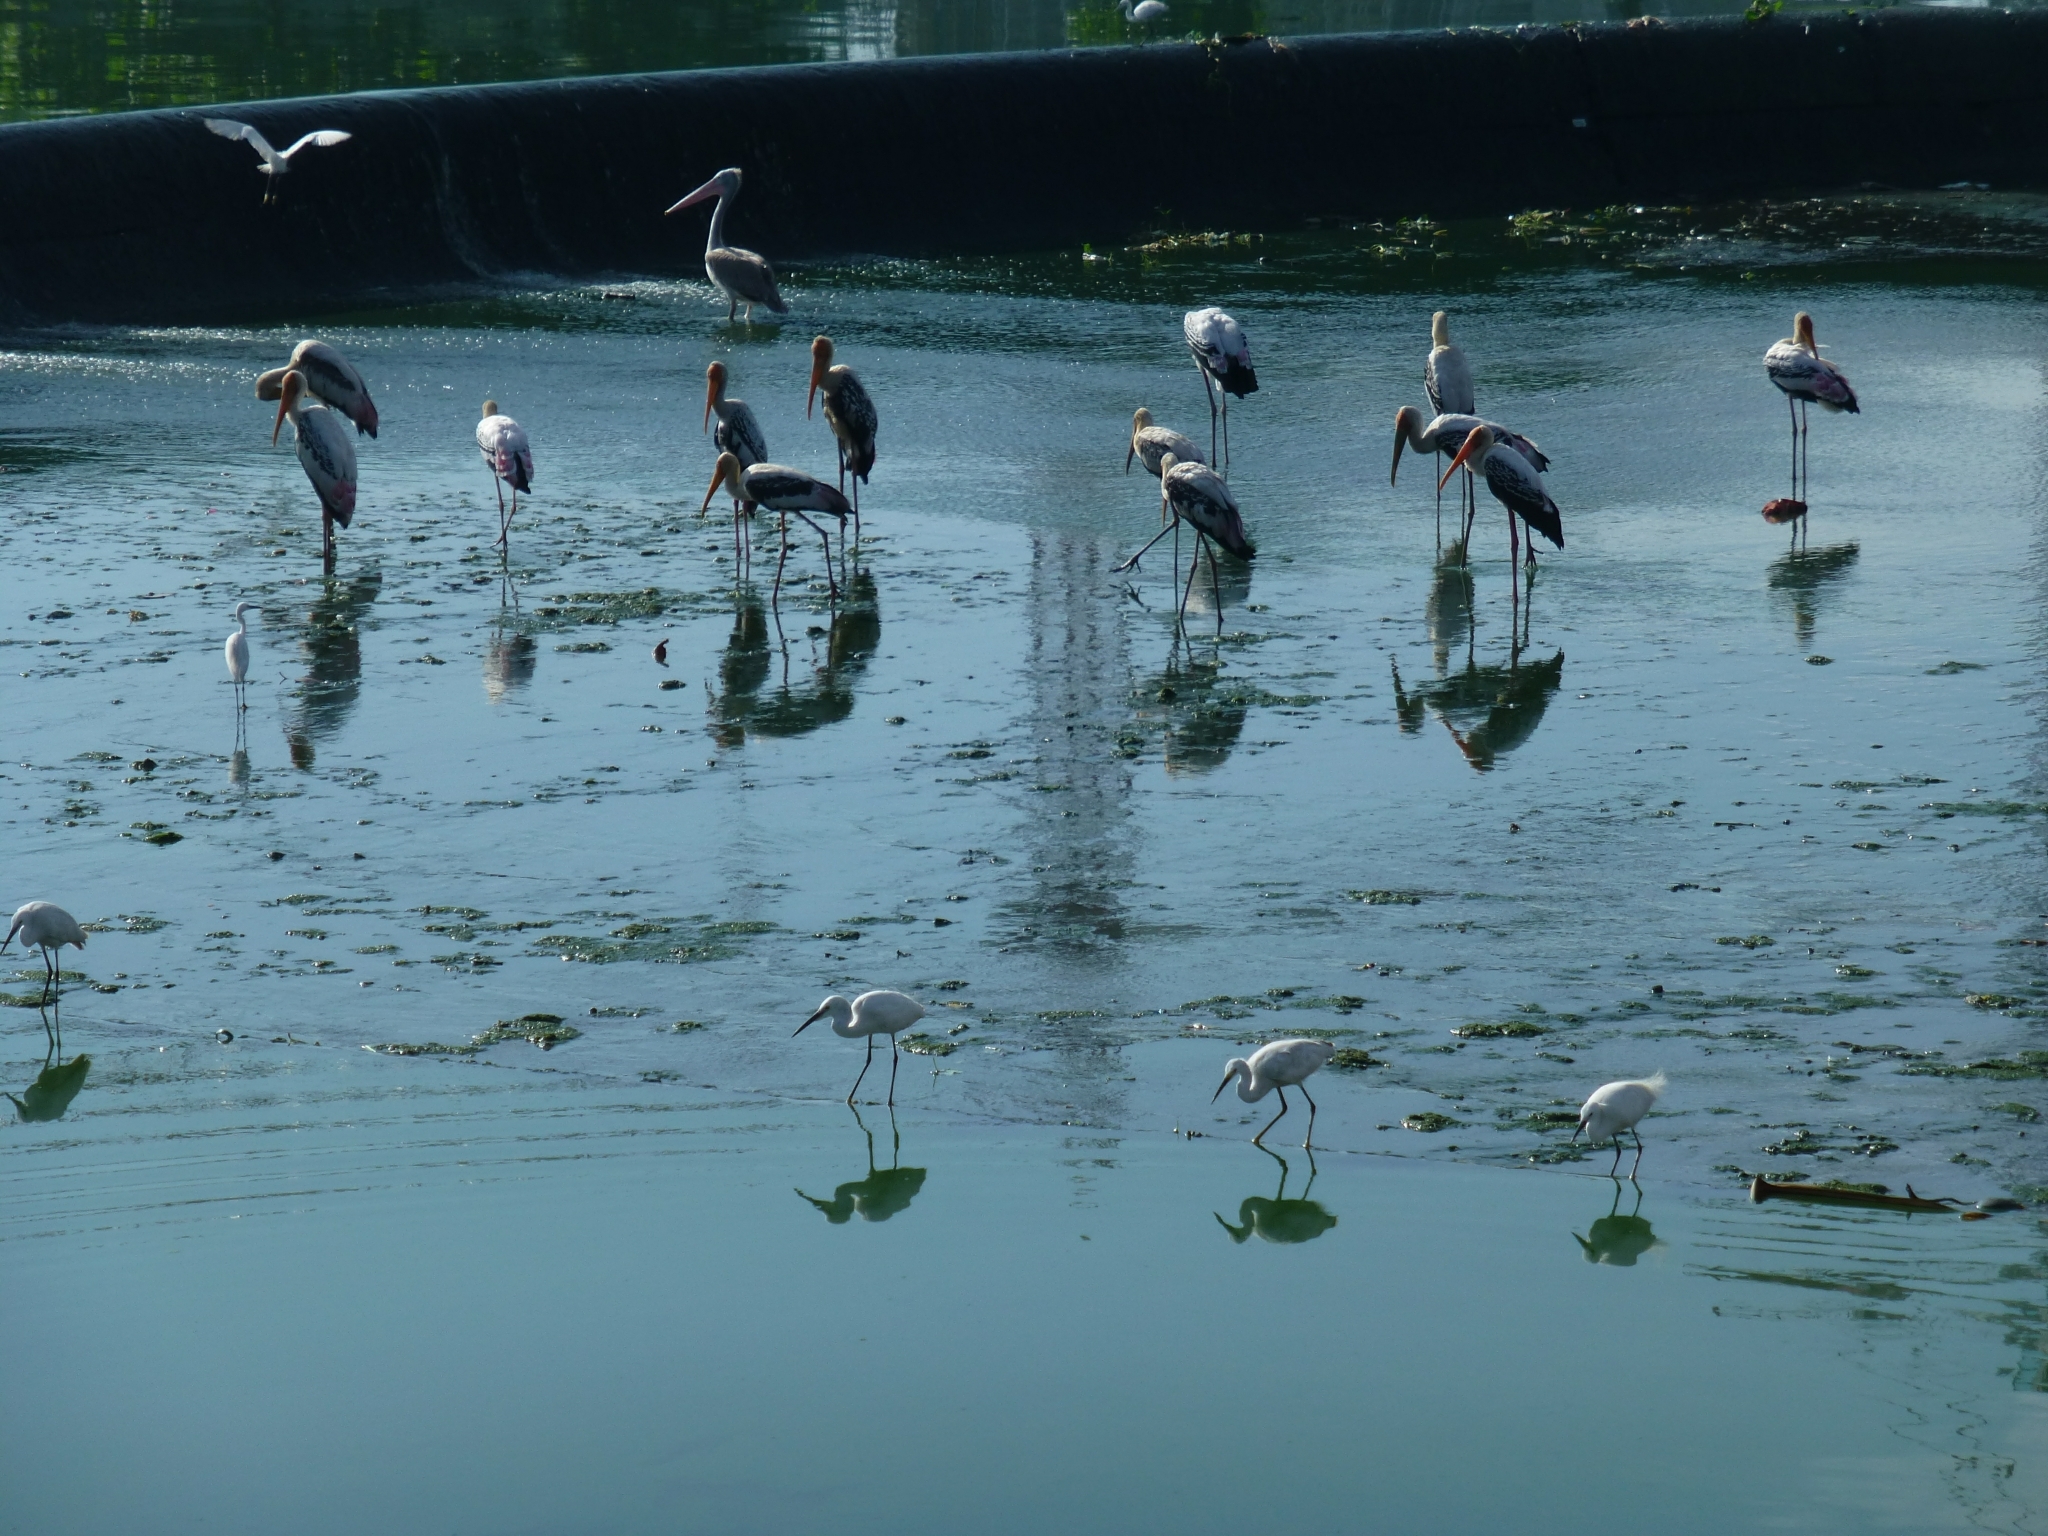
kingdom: Animalia
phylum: Chordata
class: Aves
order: Ciconiiformes
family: Ciconiidae
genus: Mycteria
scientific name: Mycteria leucocephala
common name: Painted stork
